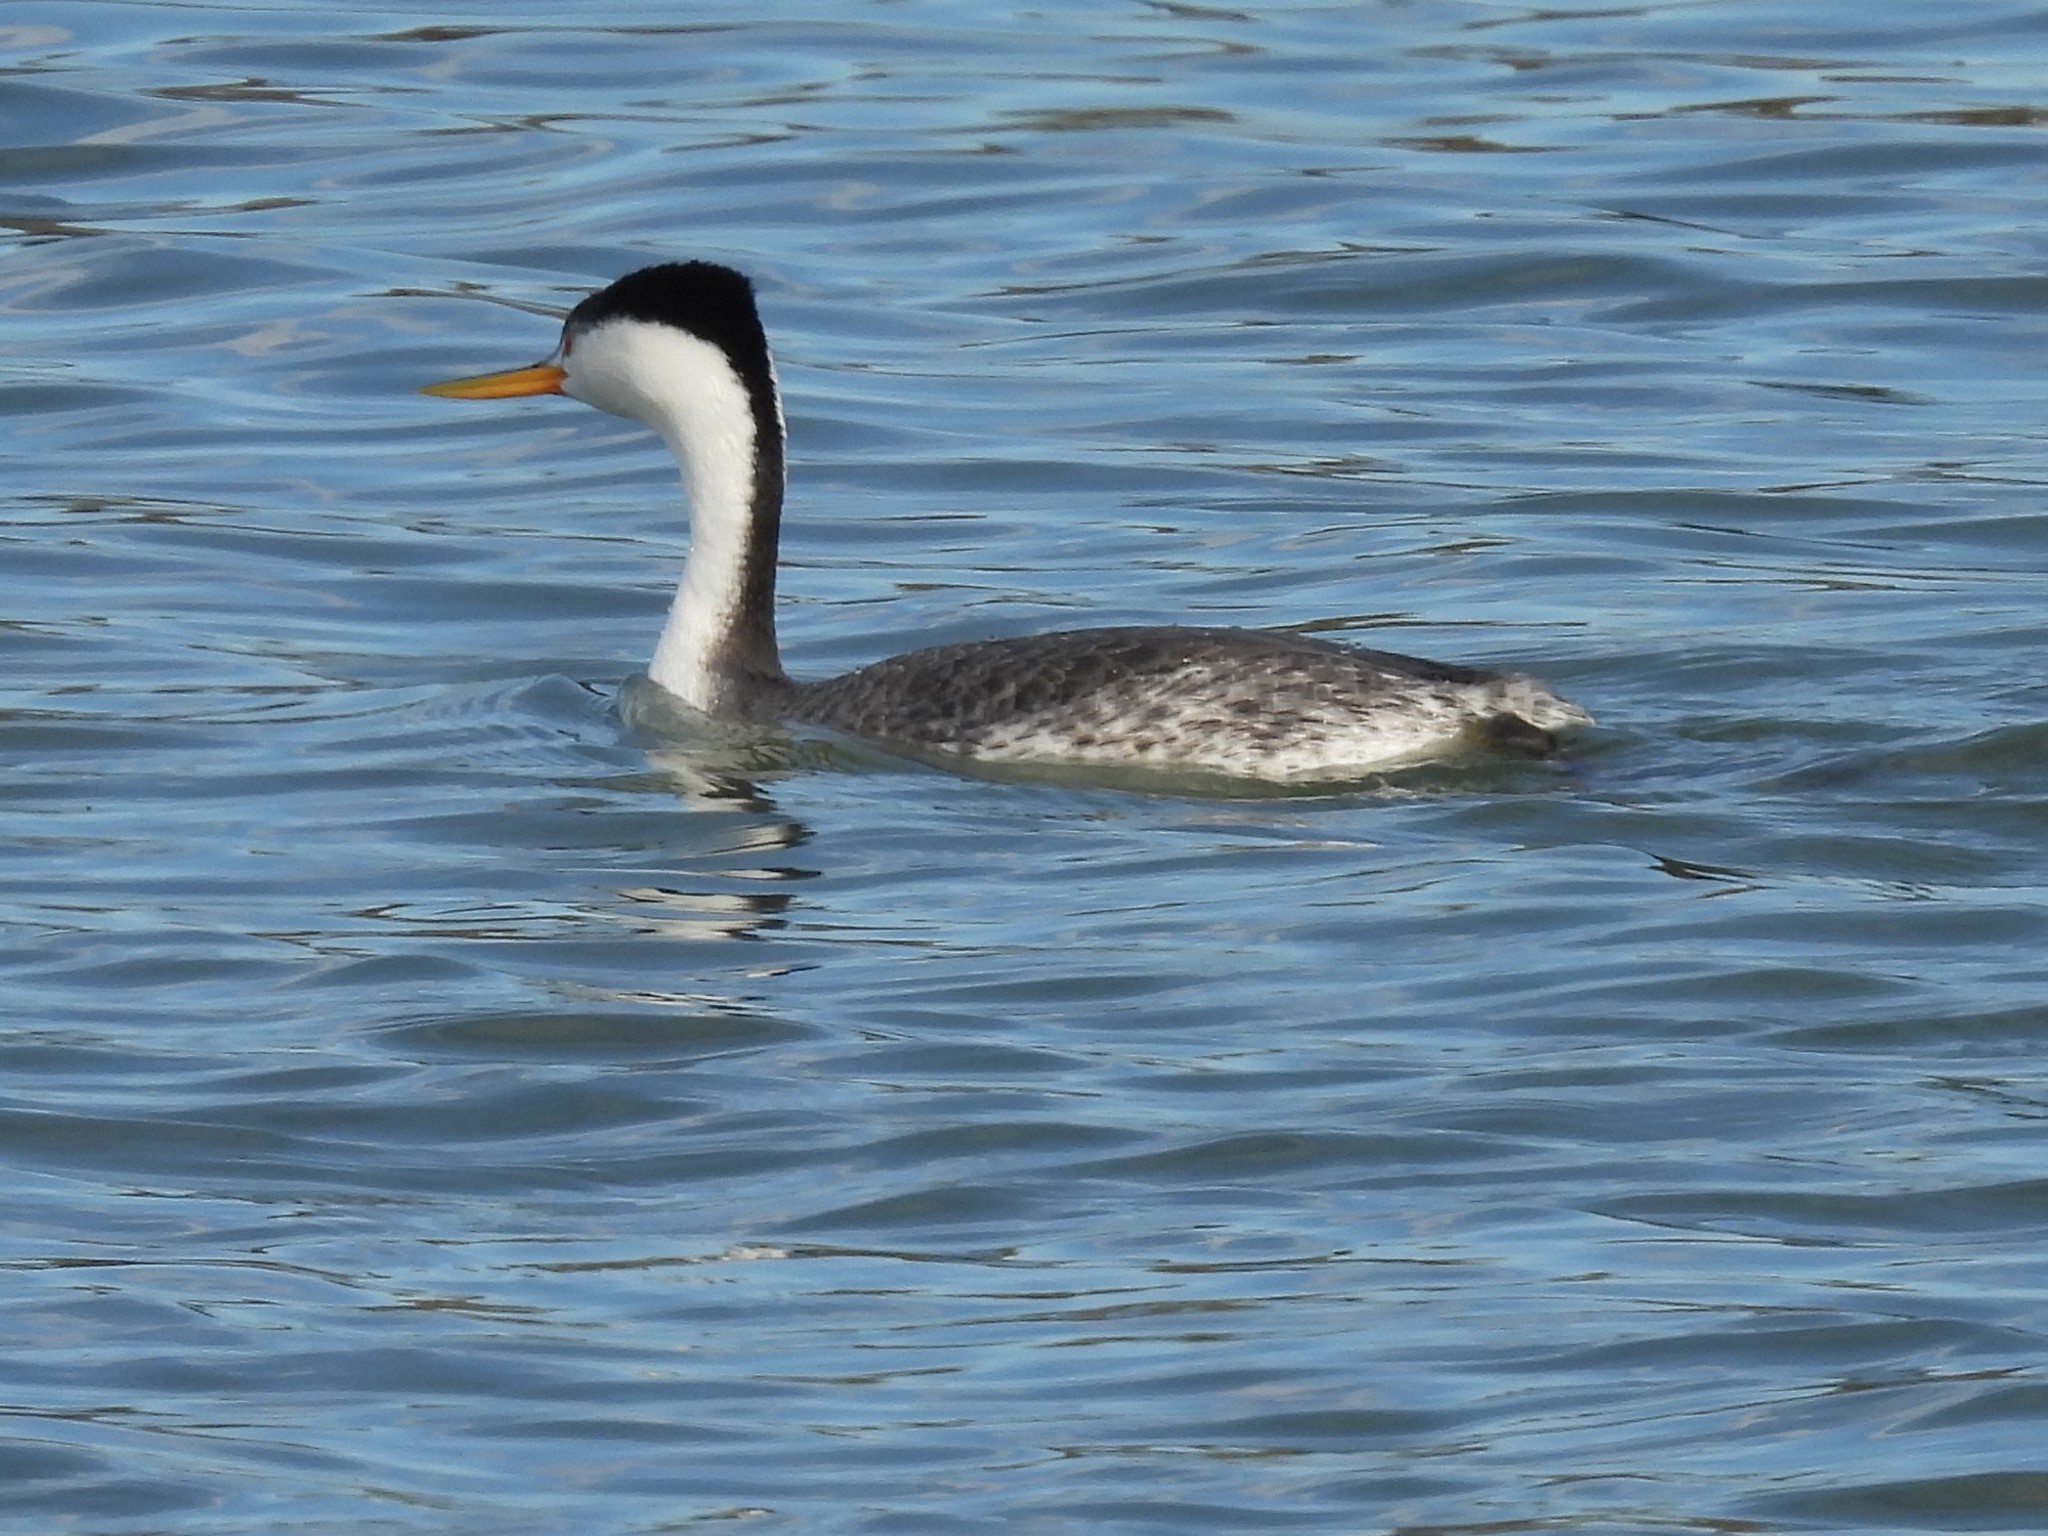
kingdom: Animalia
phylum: Chordata
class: Aves
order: Podicipediformes
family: Podicipedidae
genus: Aechmophorus
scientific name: Aechmophorus clarkii
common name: Clark's grebe
